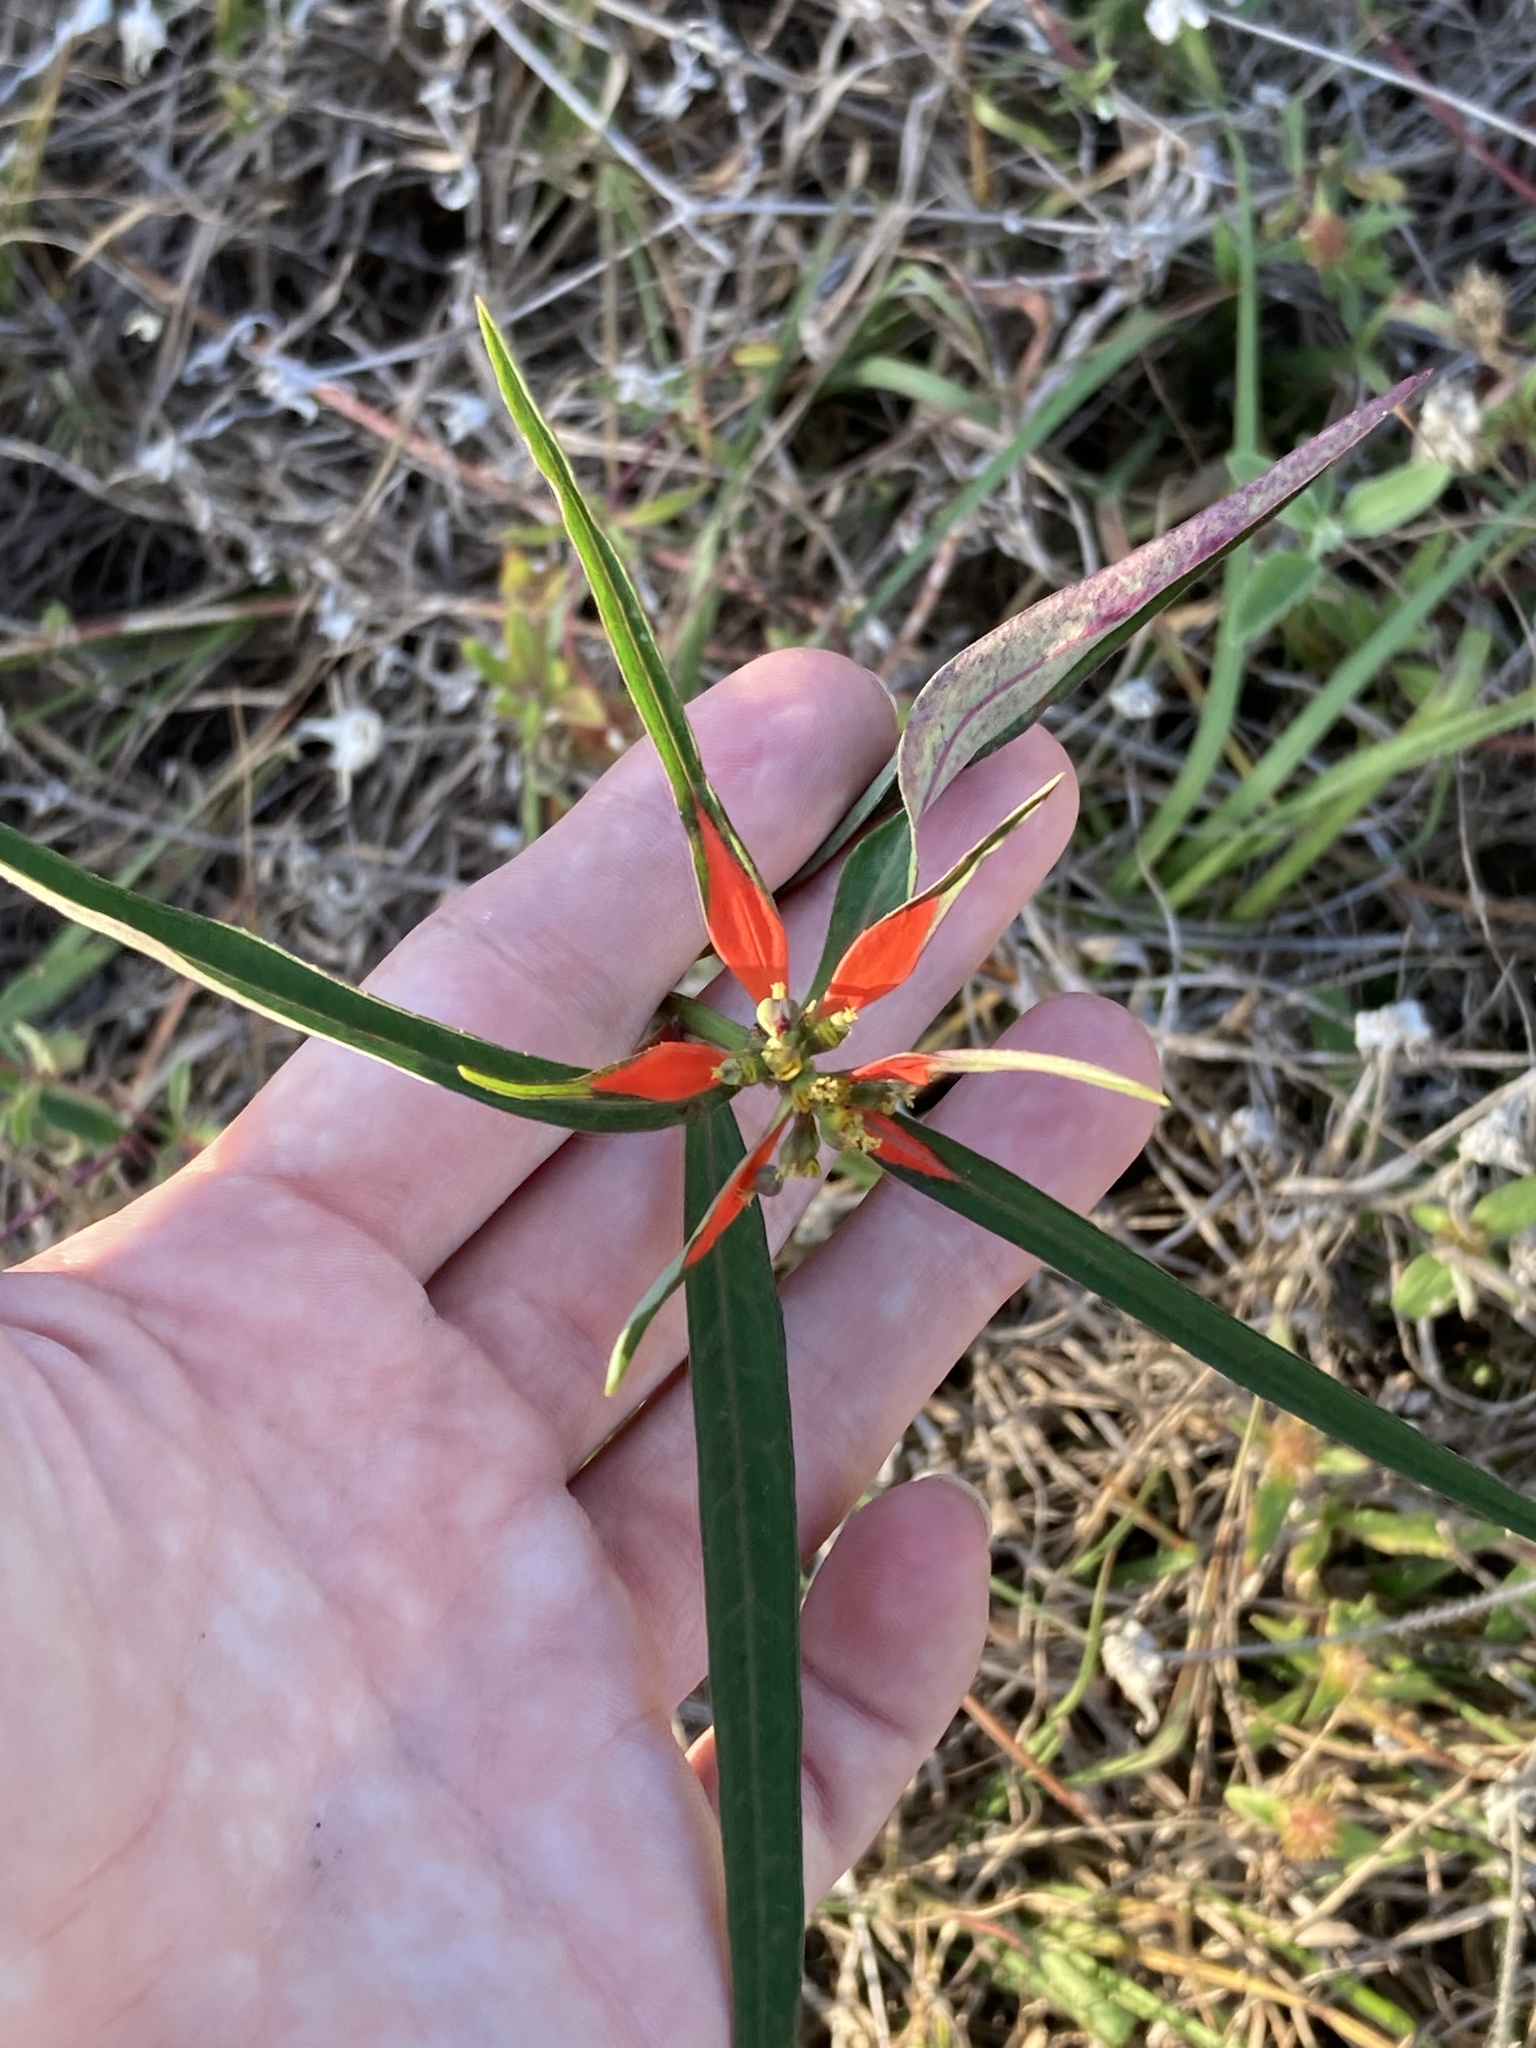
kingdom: Plantae
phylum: Tracheophyta
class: Magnoliopsida
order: Malpighiales
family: Euphorbiaceae
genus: Euphorbia
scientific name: Euphorbia heterophylla
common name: Mexican fireplant
